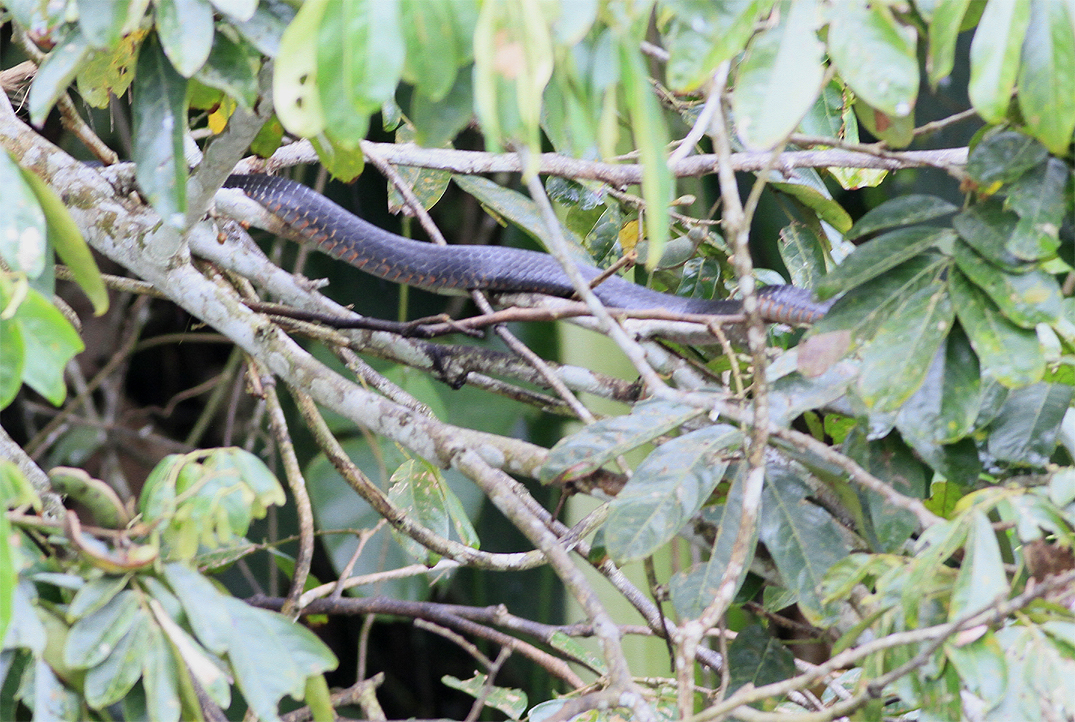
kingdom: Animalia
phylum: Chordata
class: Squamata
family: Colubridae
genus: Chironius
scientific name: Chironius scurrulus
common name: Wagler's sipo
